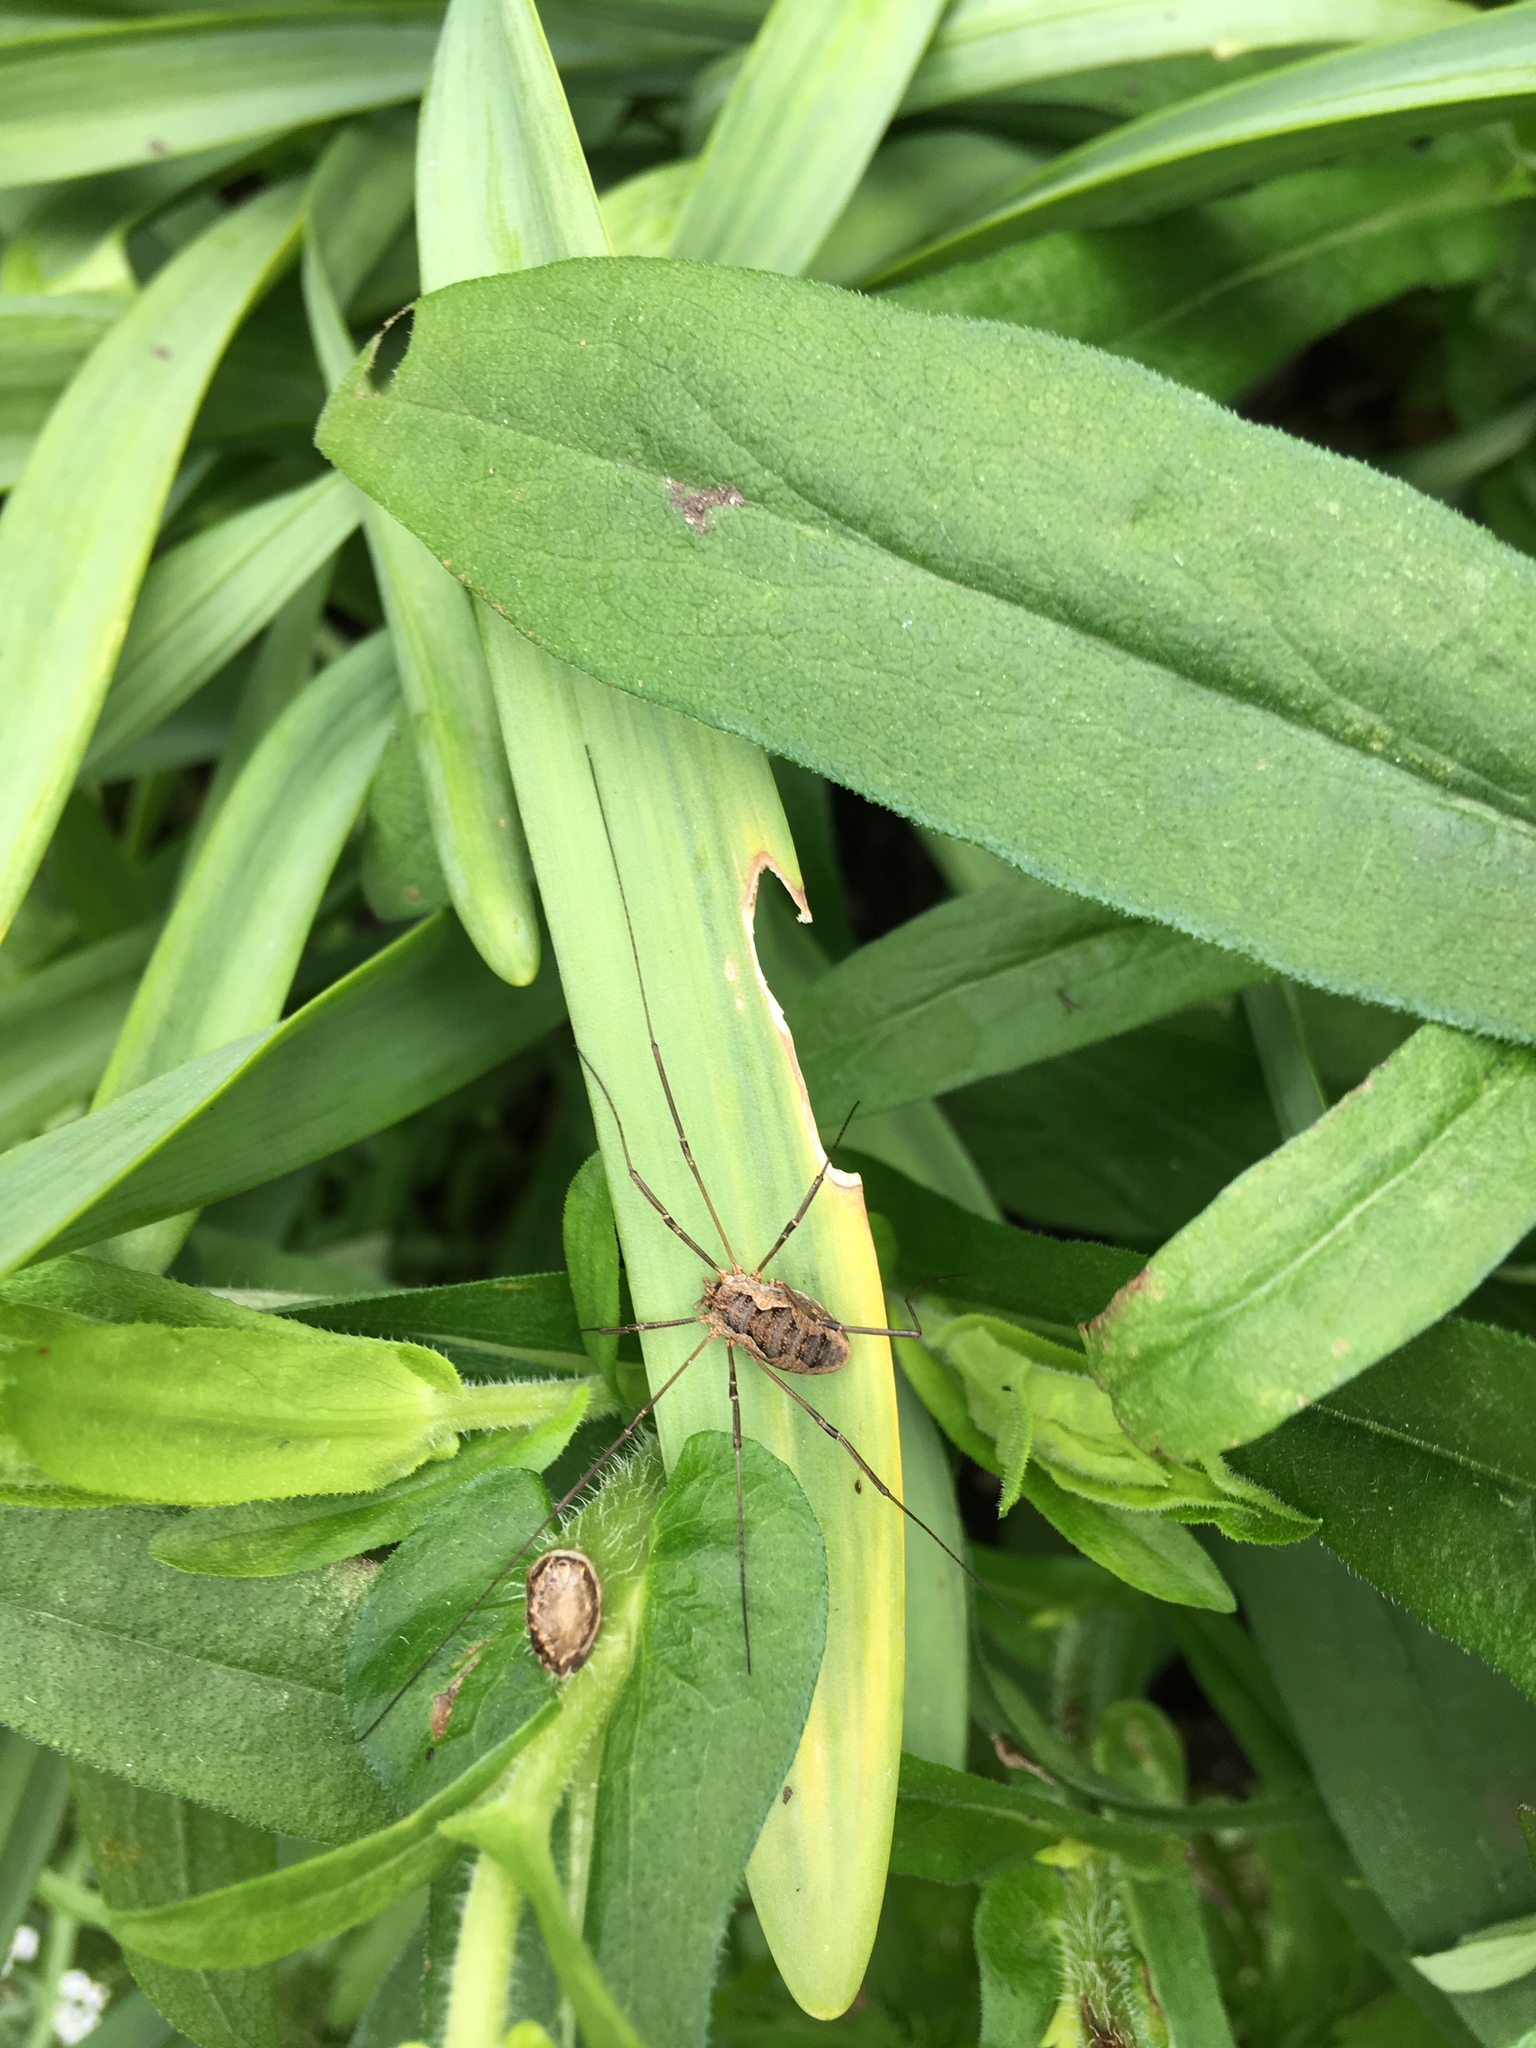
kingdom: Animalia
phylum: Arthropoda
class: Arachnida
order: Opiliones
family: Phalangiidae
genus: Phalangium
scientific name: Phalangium opilio
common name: Daddy longleg
